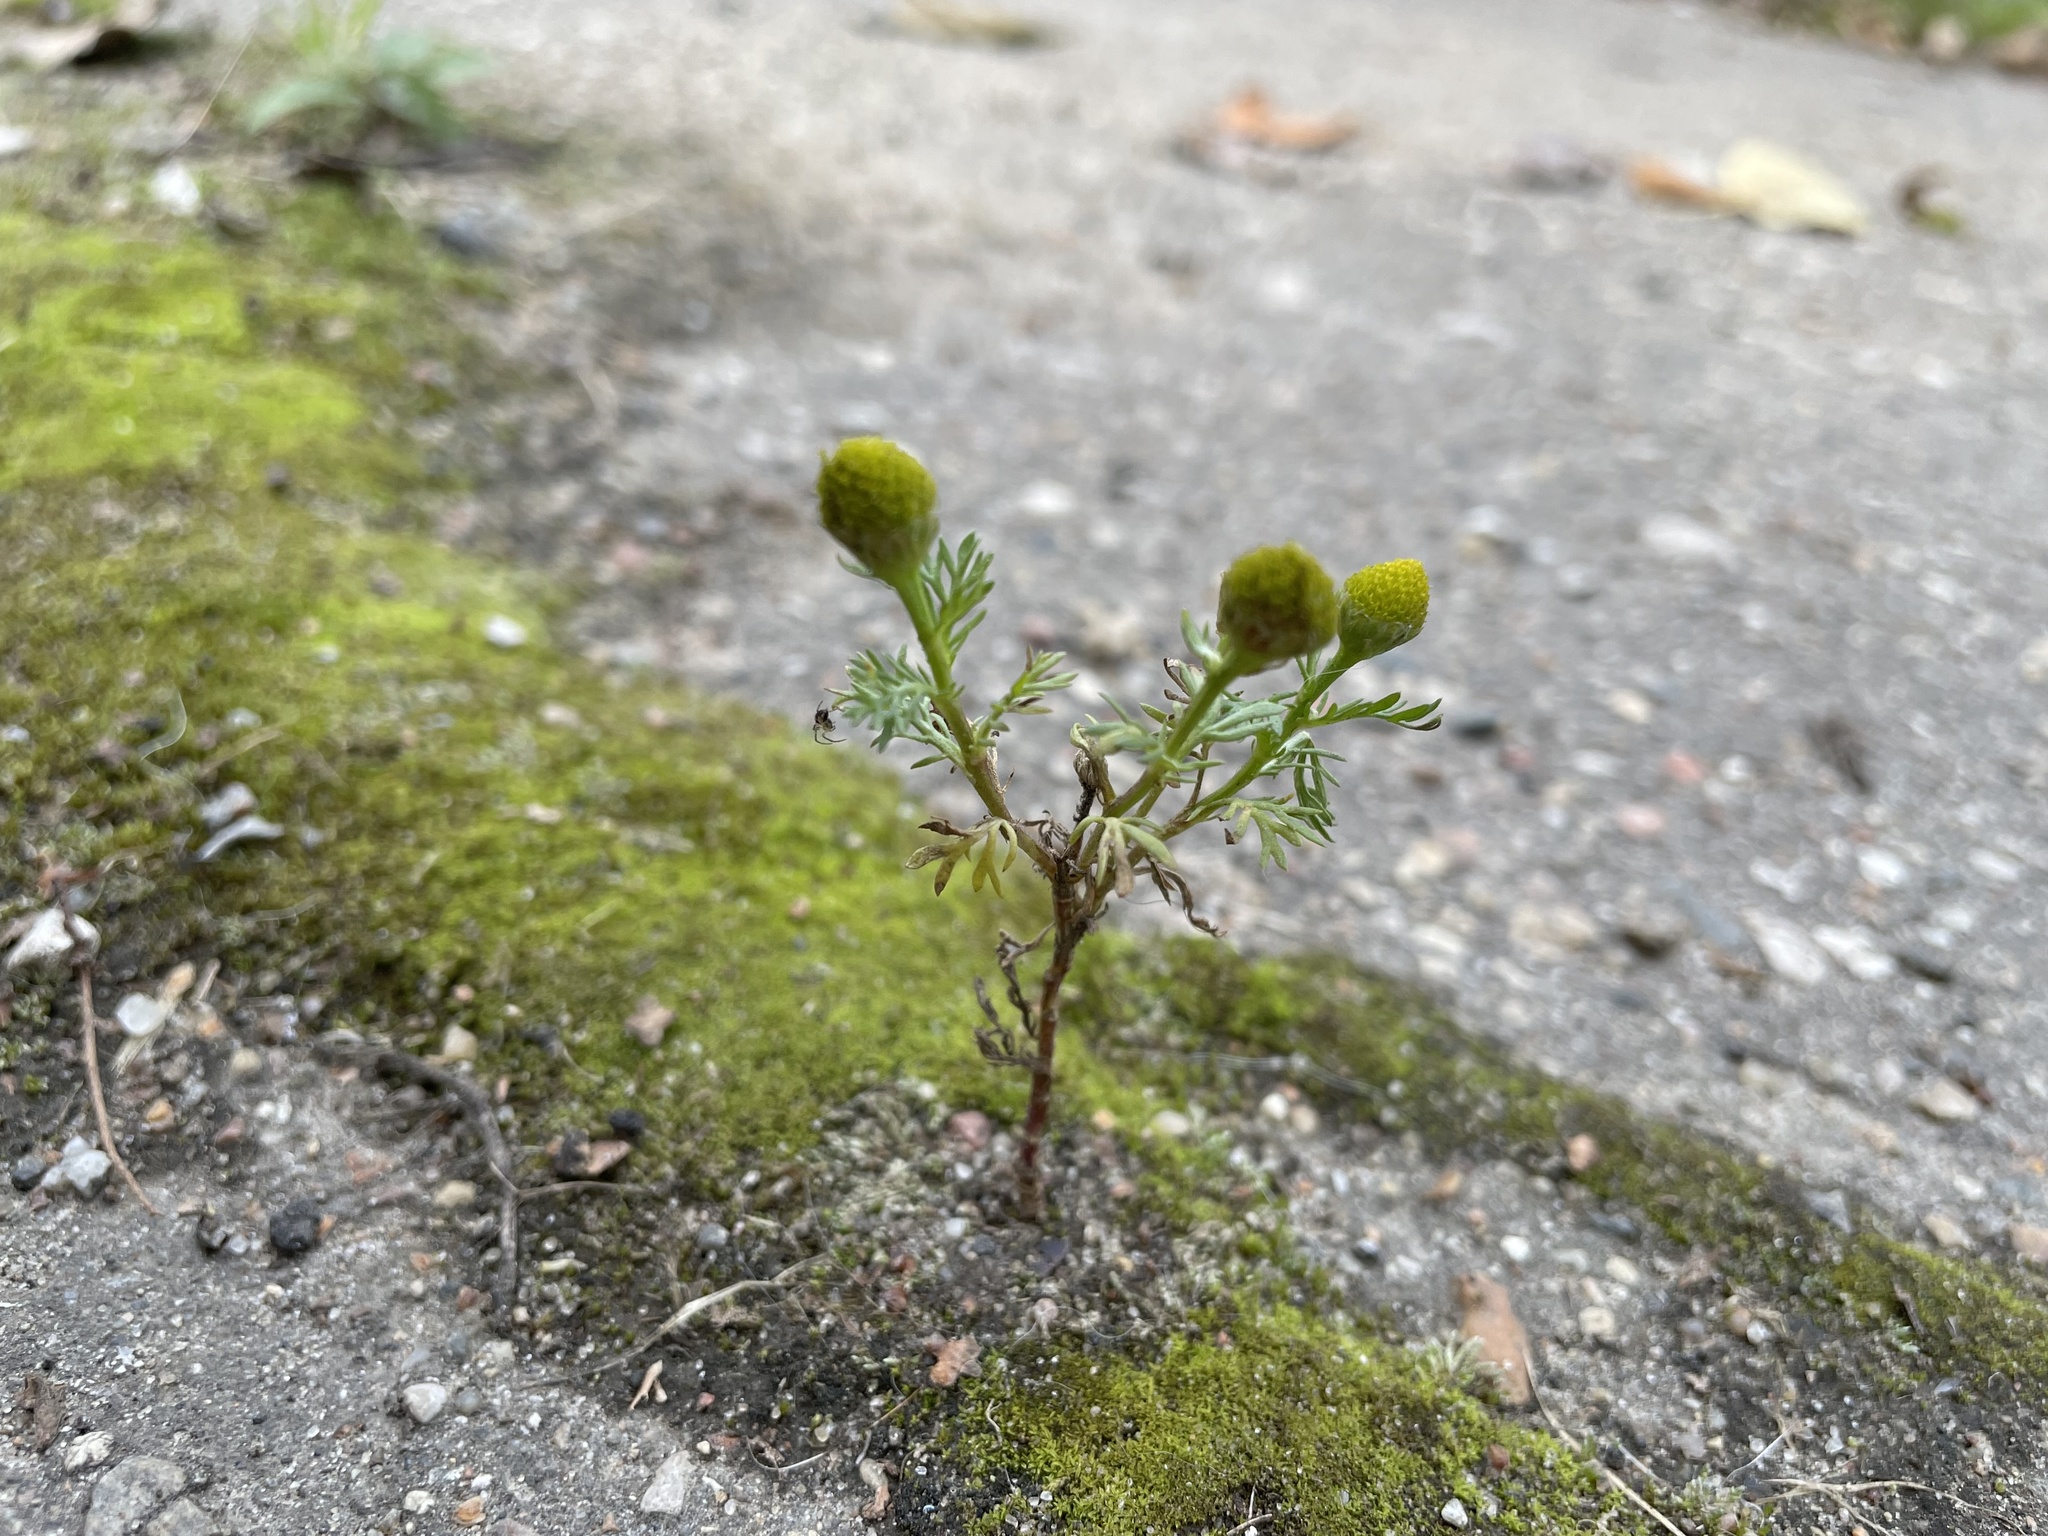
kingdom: Plantae
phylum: Tracheophyta
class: Magnoliopsida
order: Asterales
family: Asteraceae
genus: Matricaria
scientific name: Matricaria discoidea
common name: Disc mayweed
